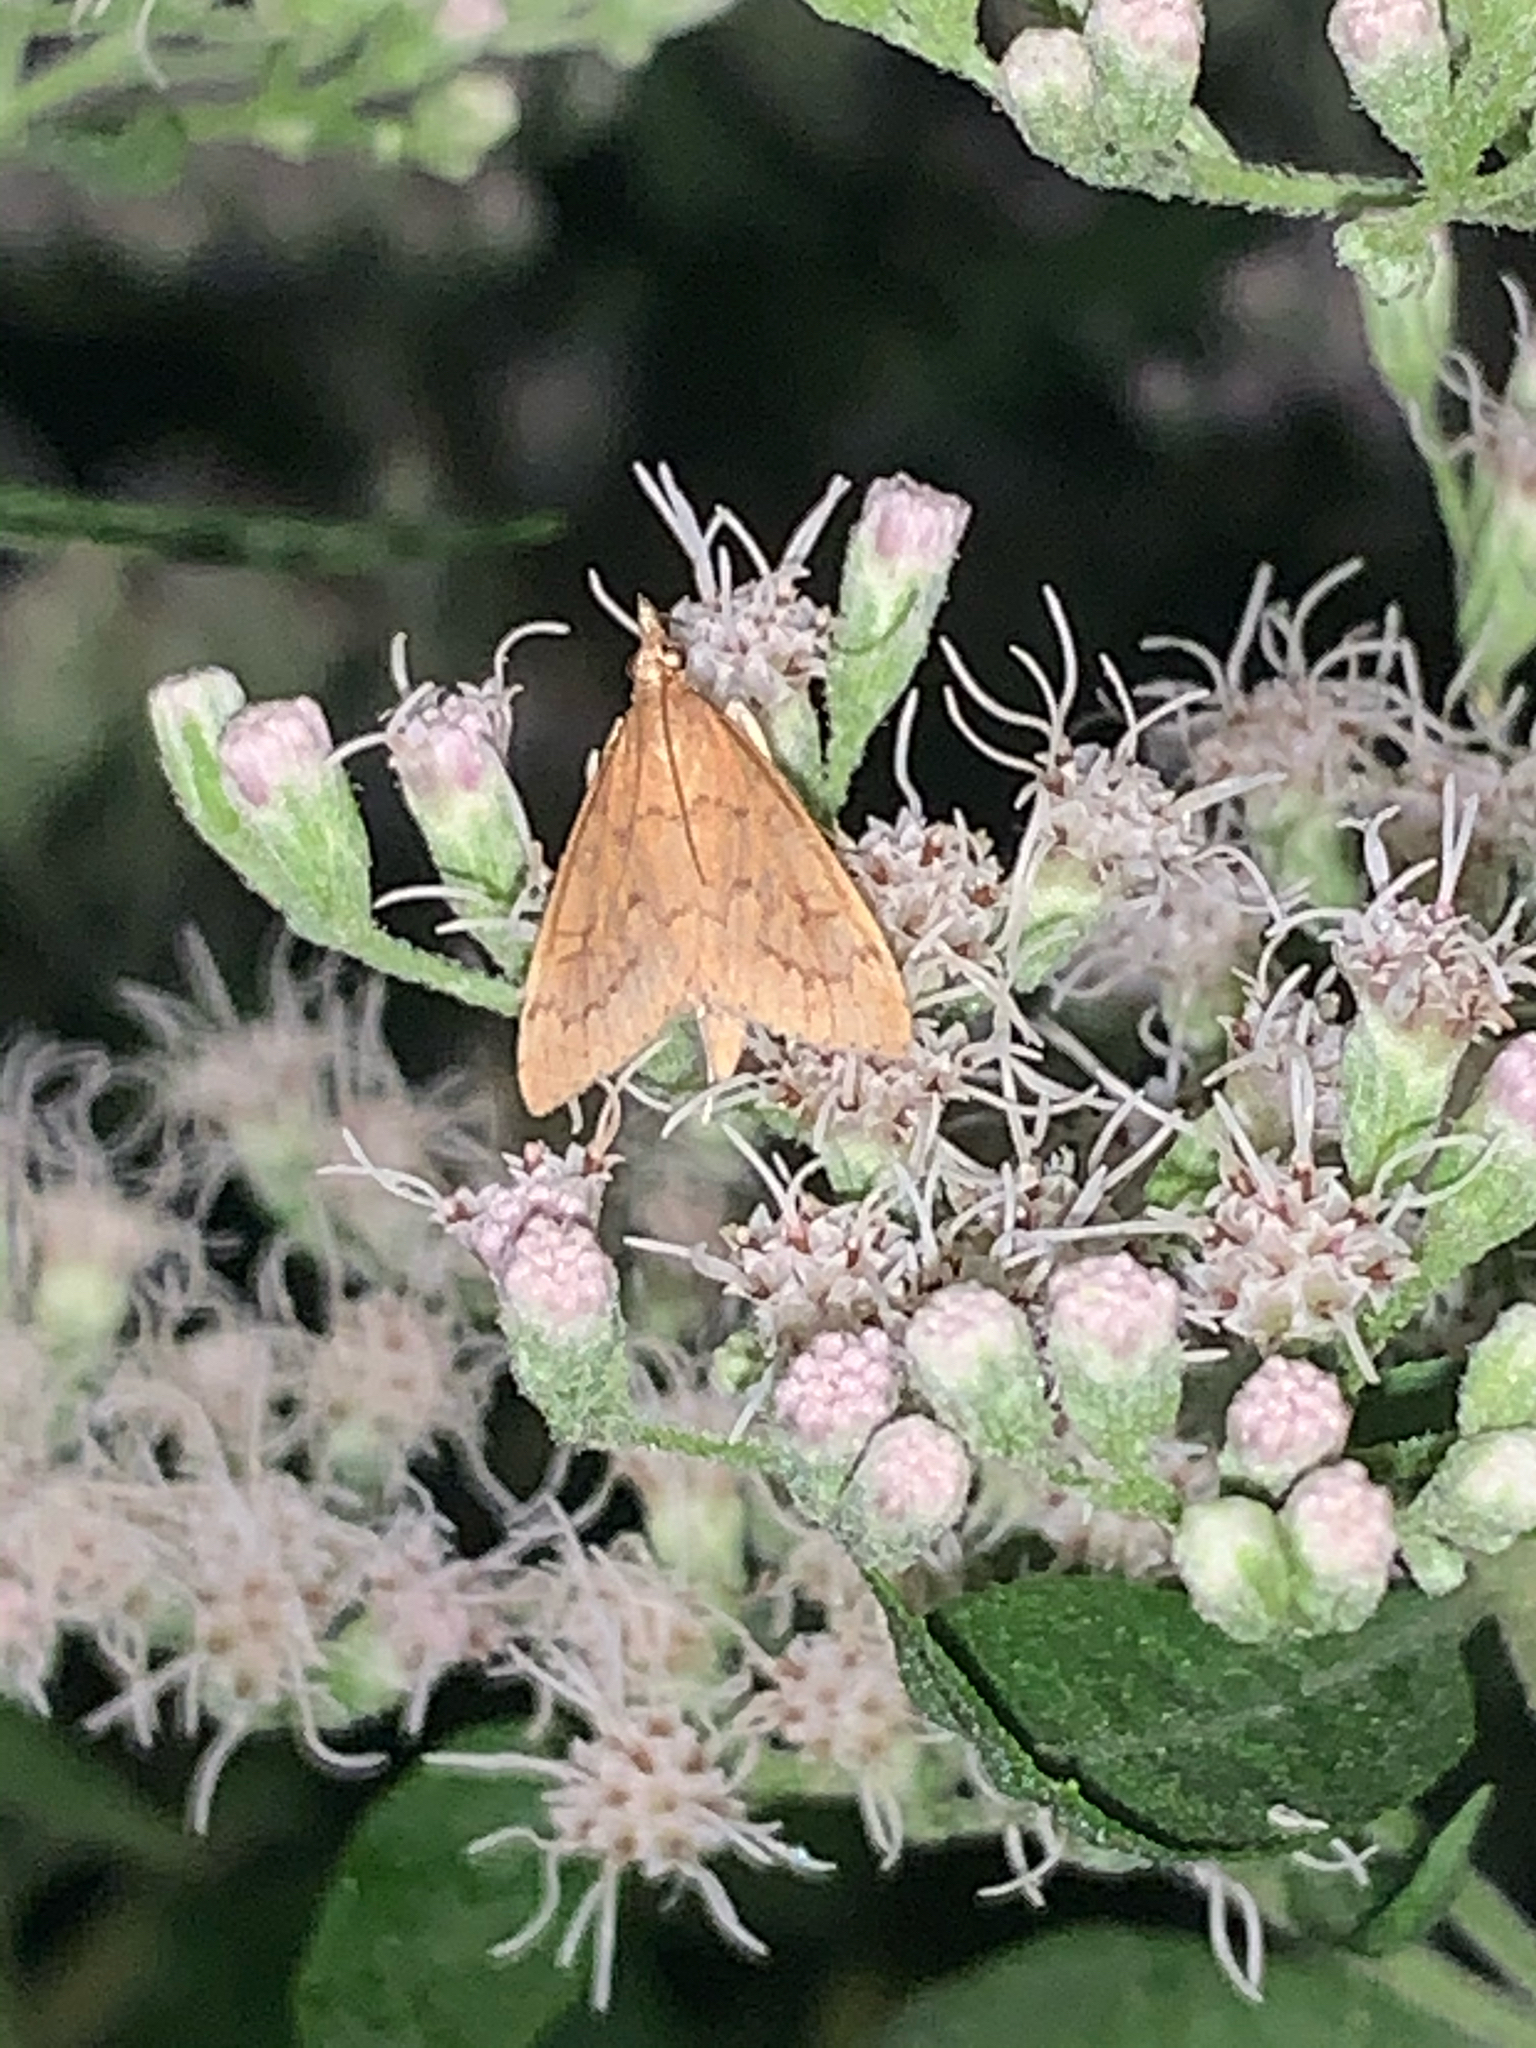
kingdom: Animalia
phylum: Arthropoda
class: Insecta
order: Lepidoptera
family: Crambidae
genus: Udea
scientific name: Udea rubigalis
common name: Celery leaftier moth
